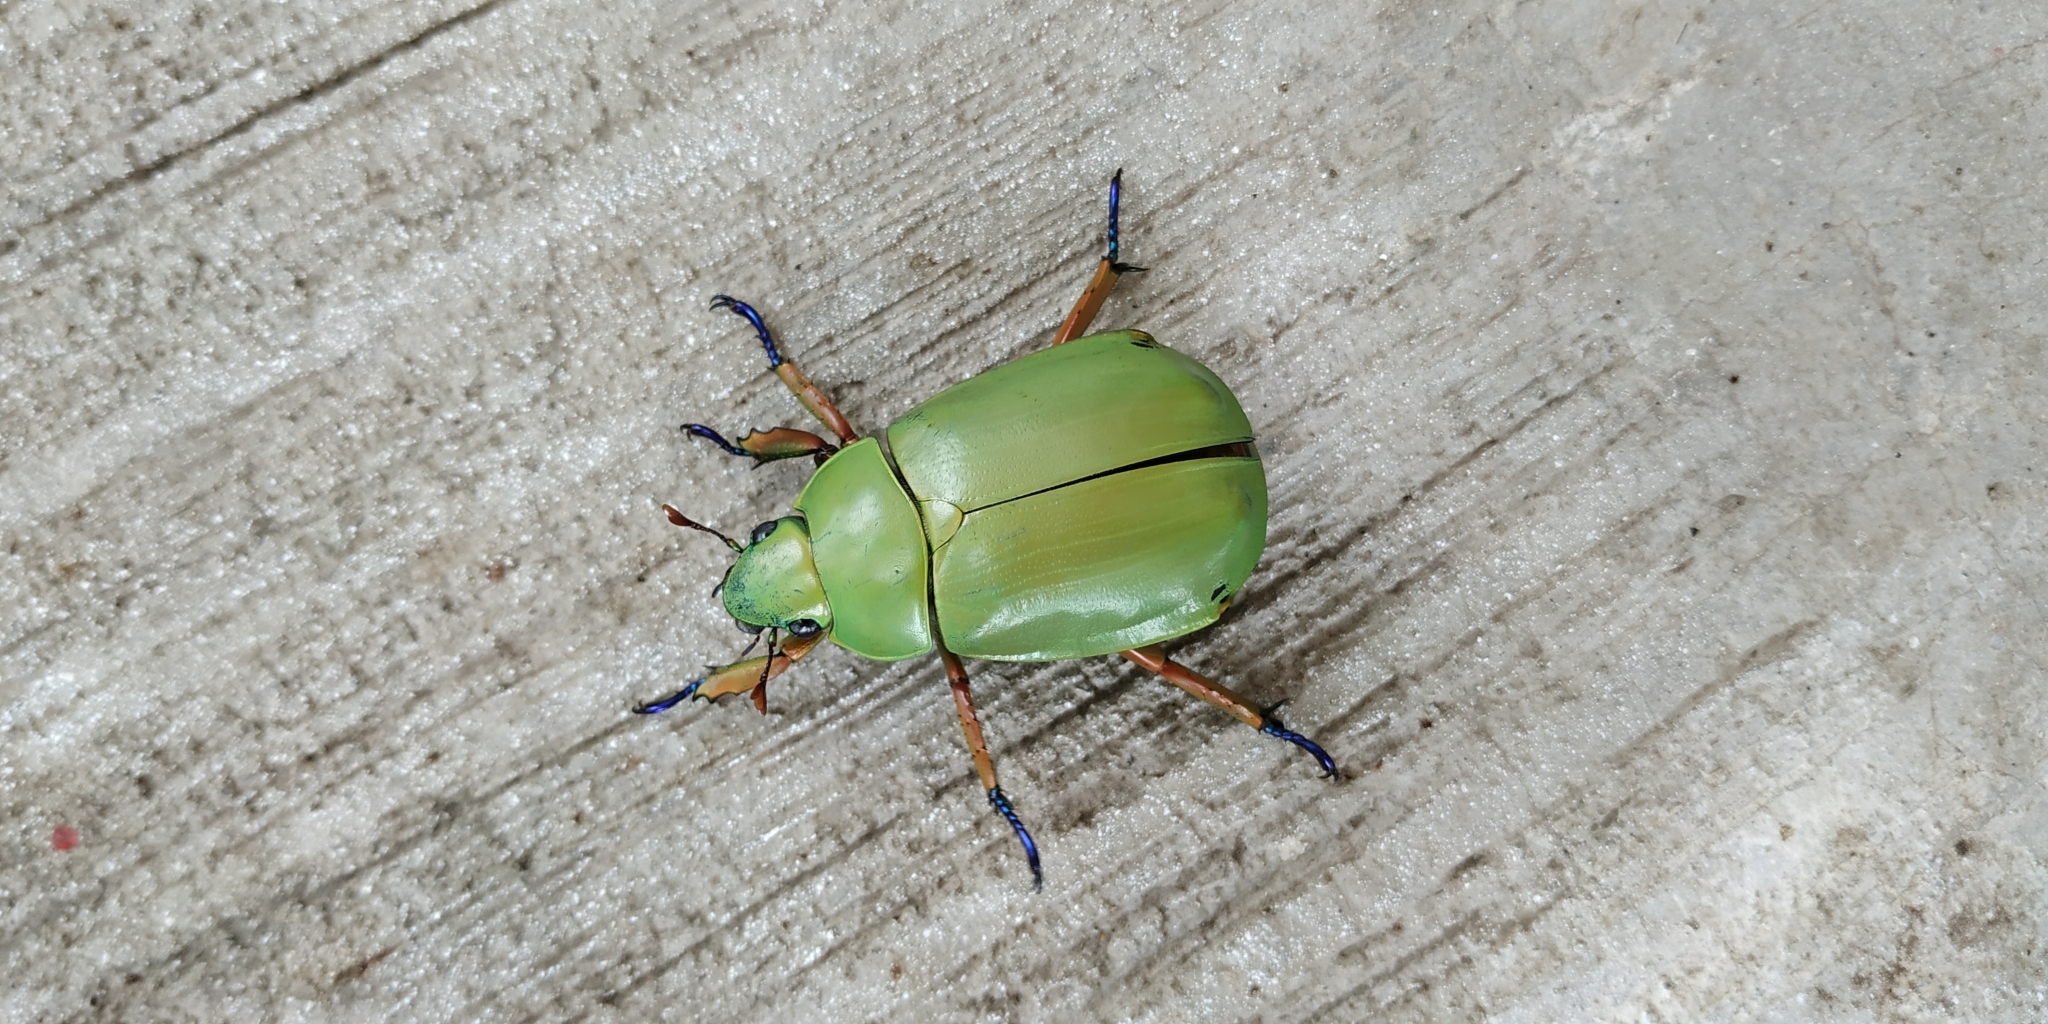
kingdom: Animalia
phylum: Arthropoda
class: Insecta
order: Coleoptera
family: Scarabaeidae
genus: Chrysina
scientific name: Chrysina macropus
